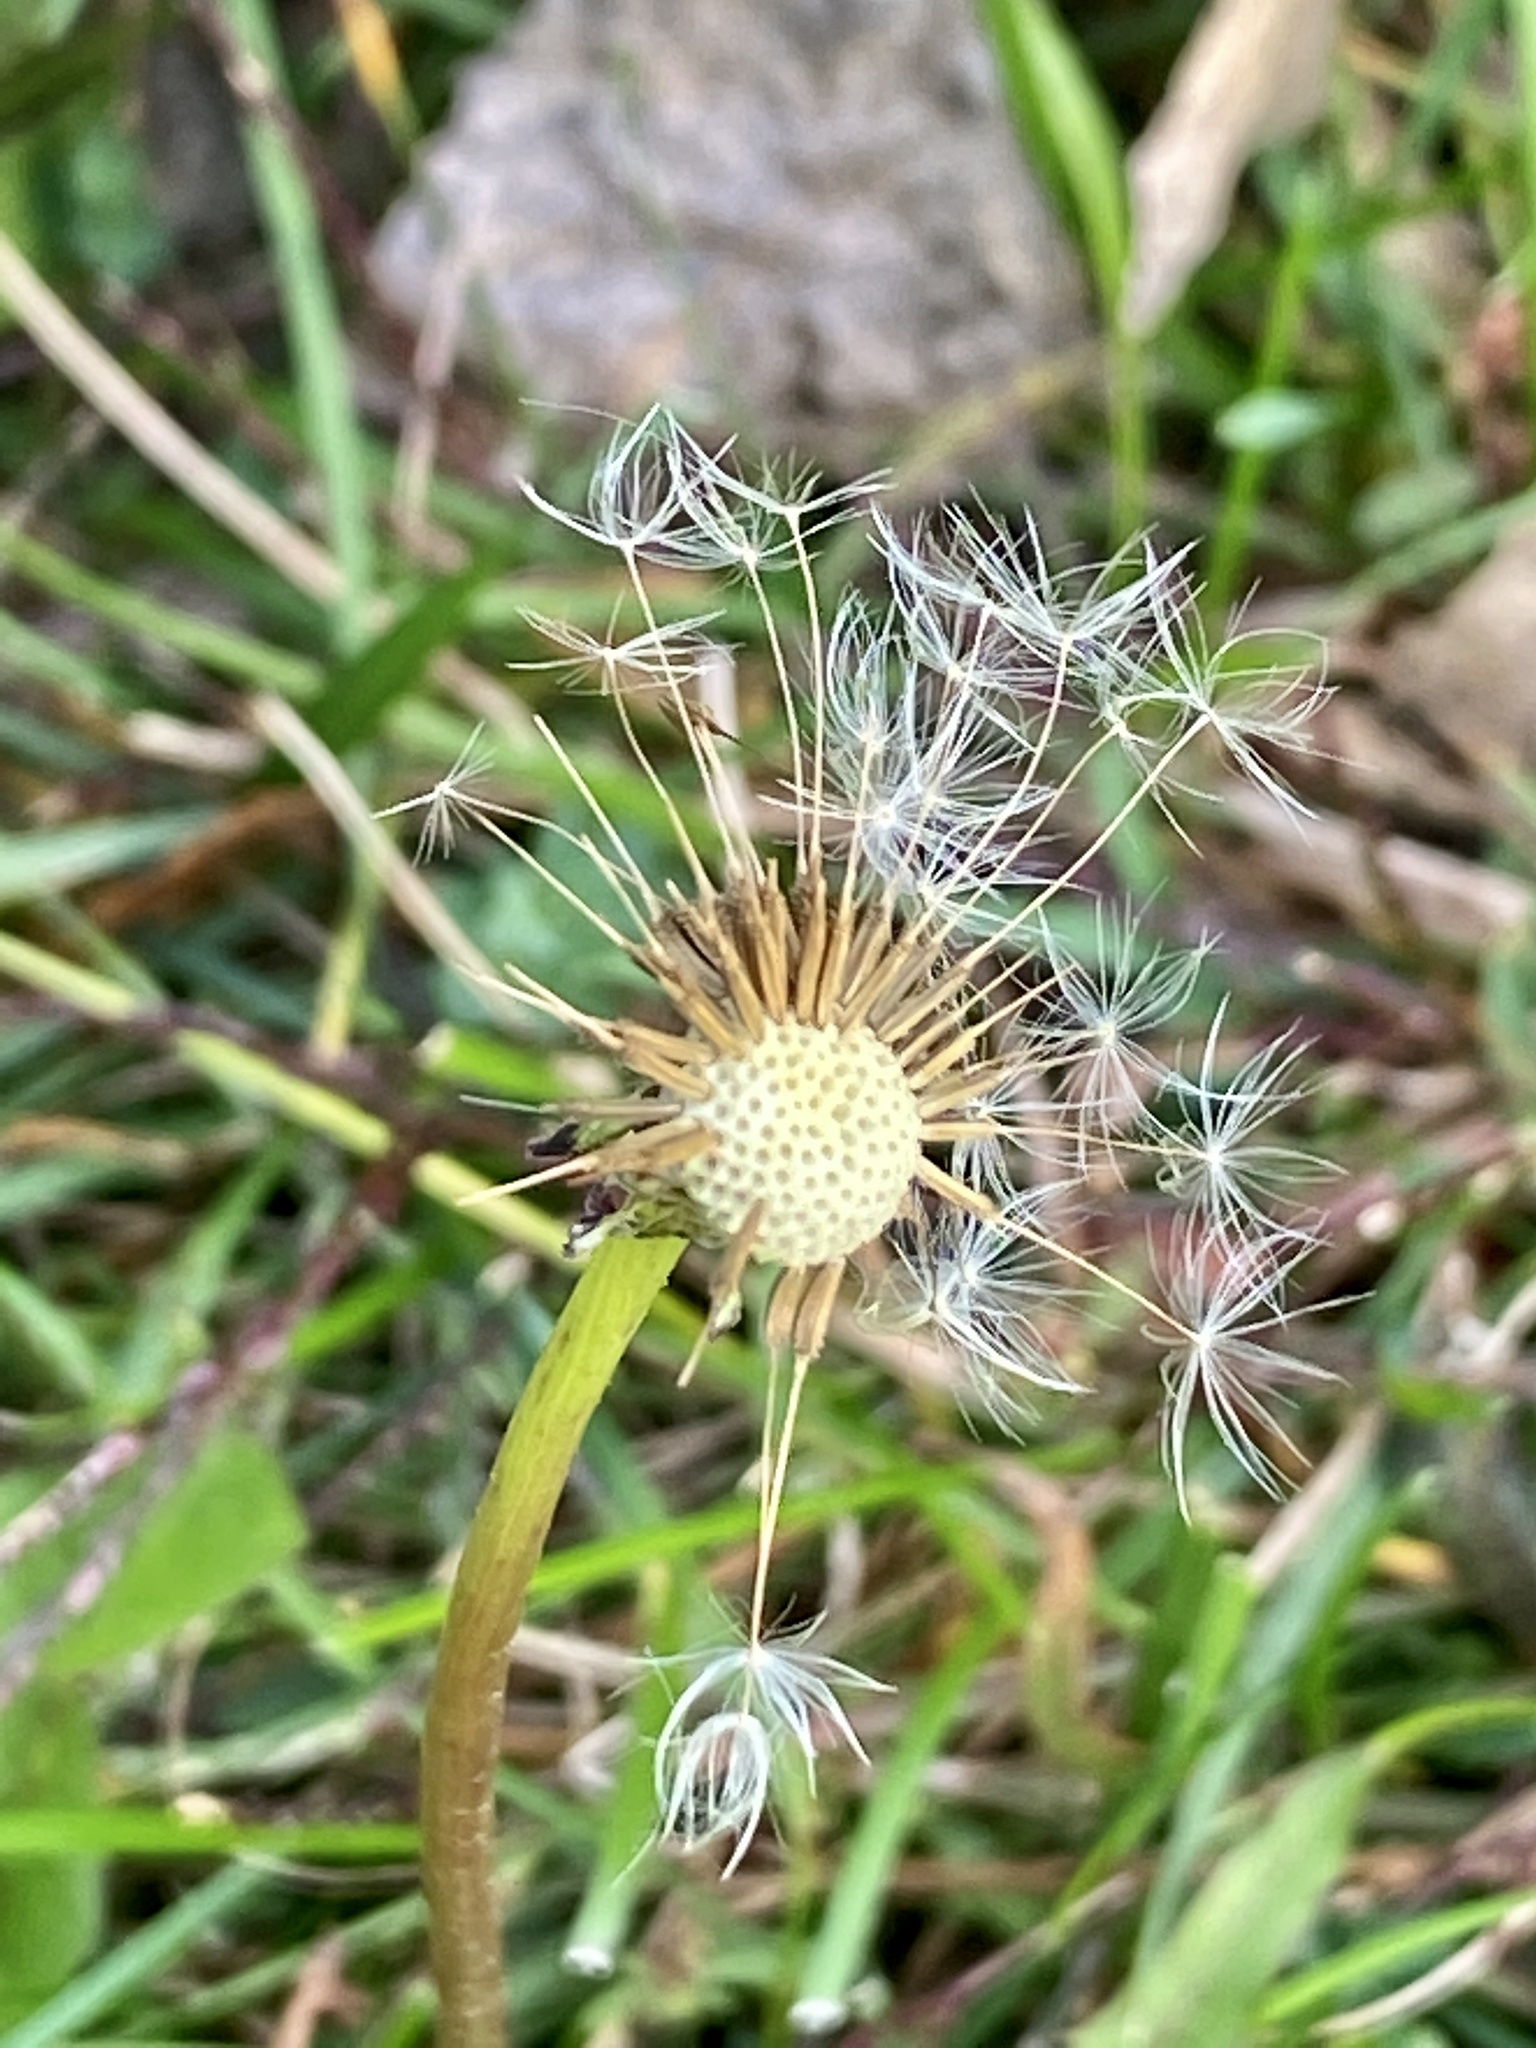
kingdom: Plantae
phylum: Tracheophyta
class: Magnoliopsida
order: Asterales
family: Asteraceae
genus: Taraxacum
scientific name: Taraxacum officinale
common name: Common dandelion
